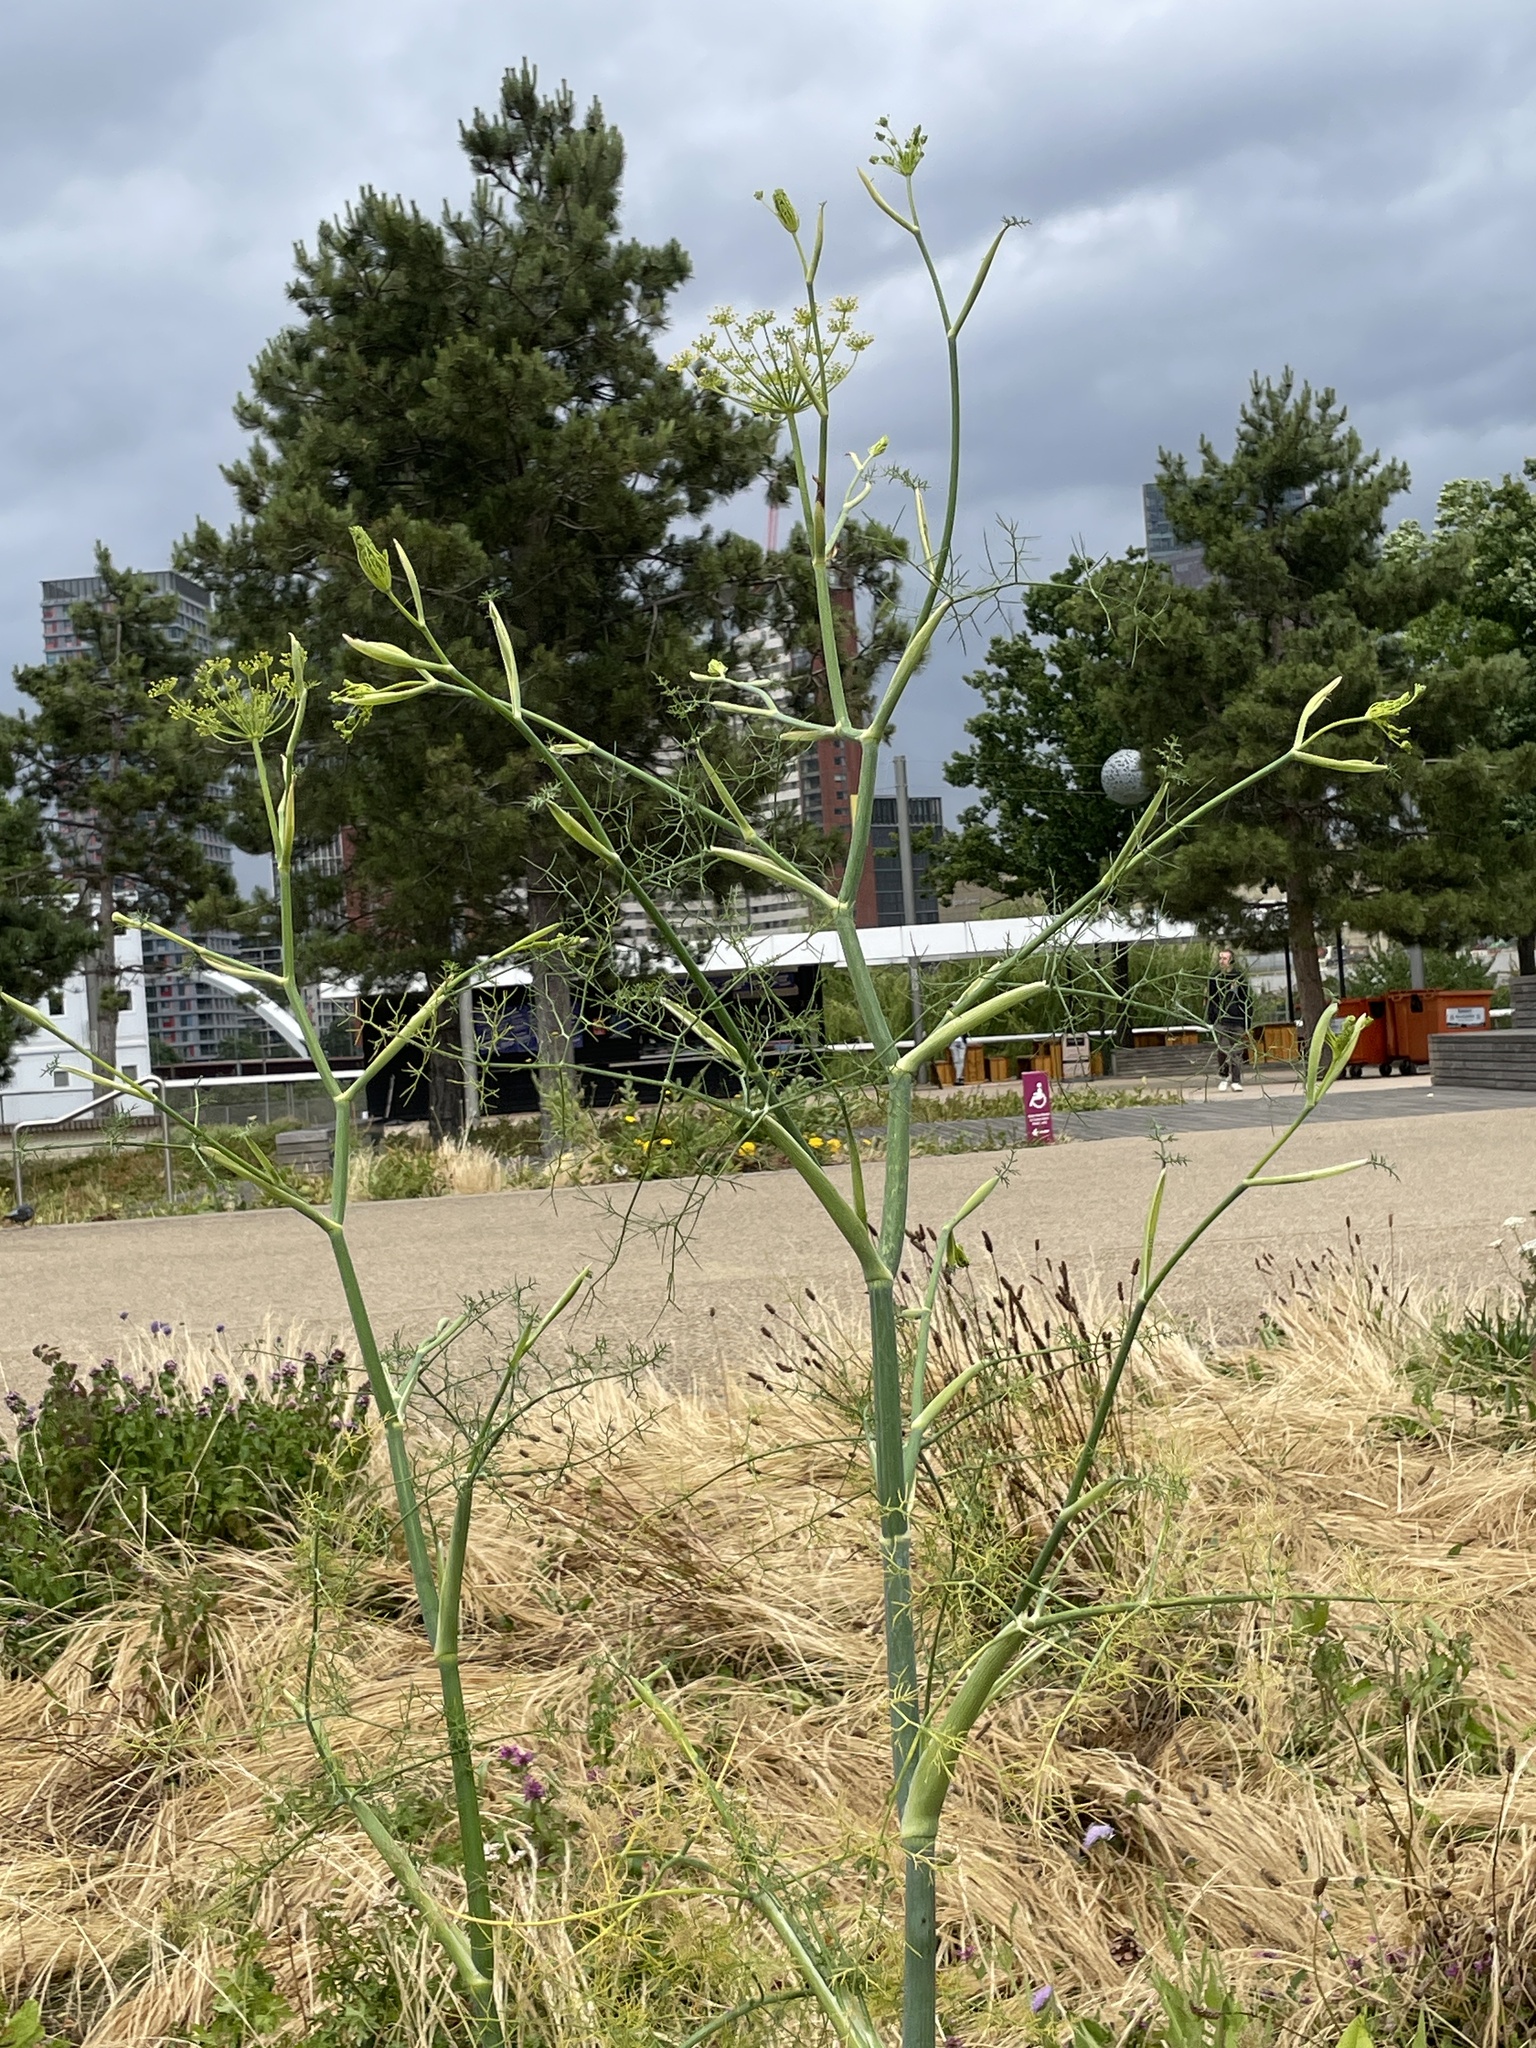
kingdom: Plantae
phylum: Tracheophyta
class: Magnoliopsida
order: Apiales
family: Apiaceae
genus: Foeniculum
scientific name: Foeniculum vulgare
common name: Fennel
